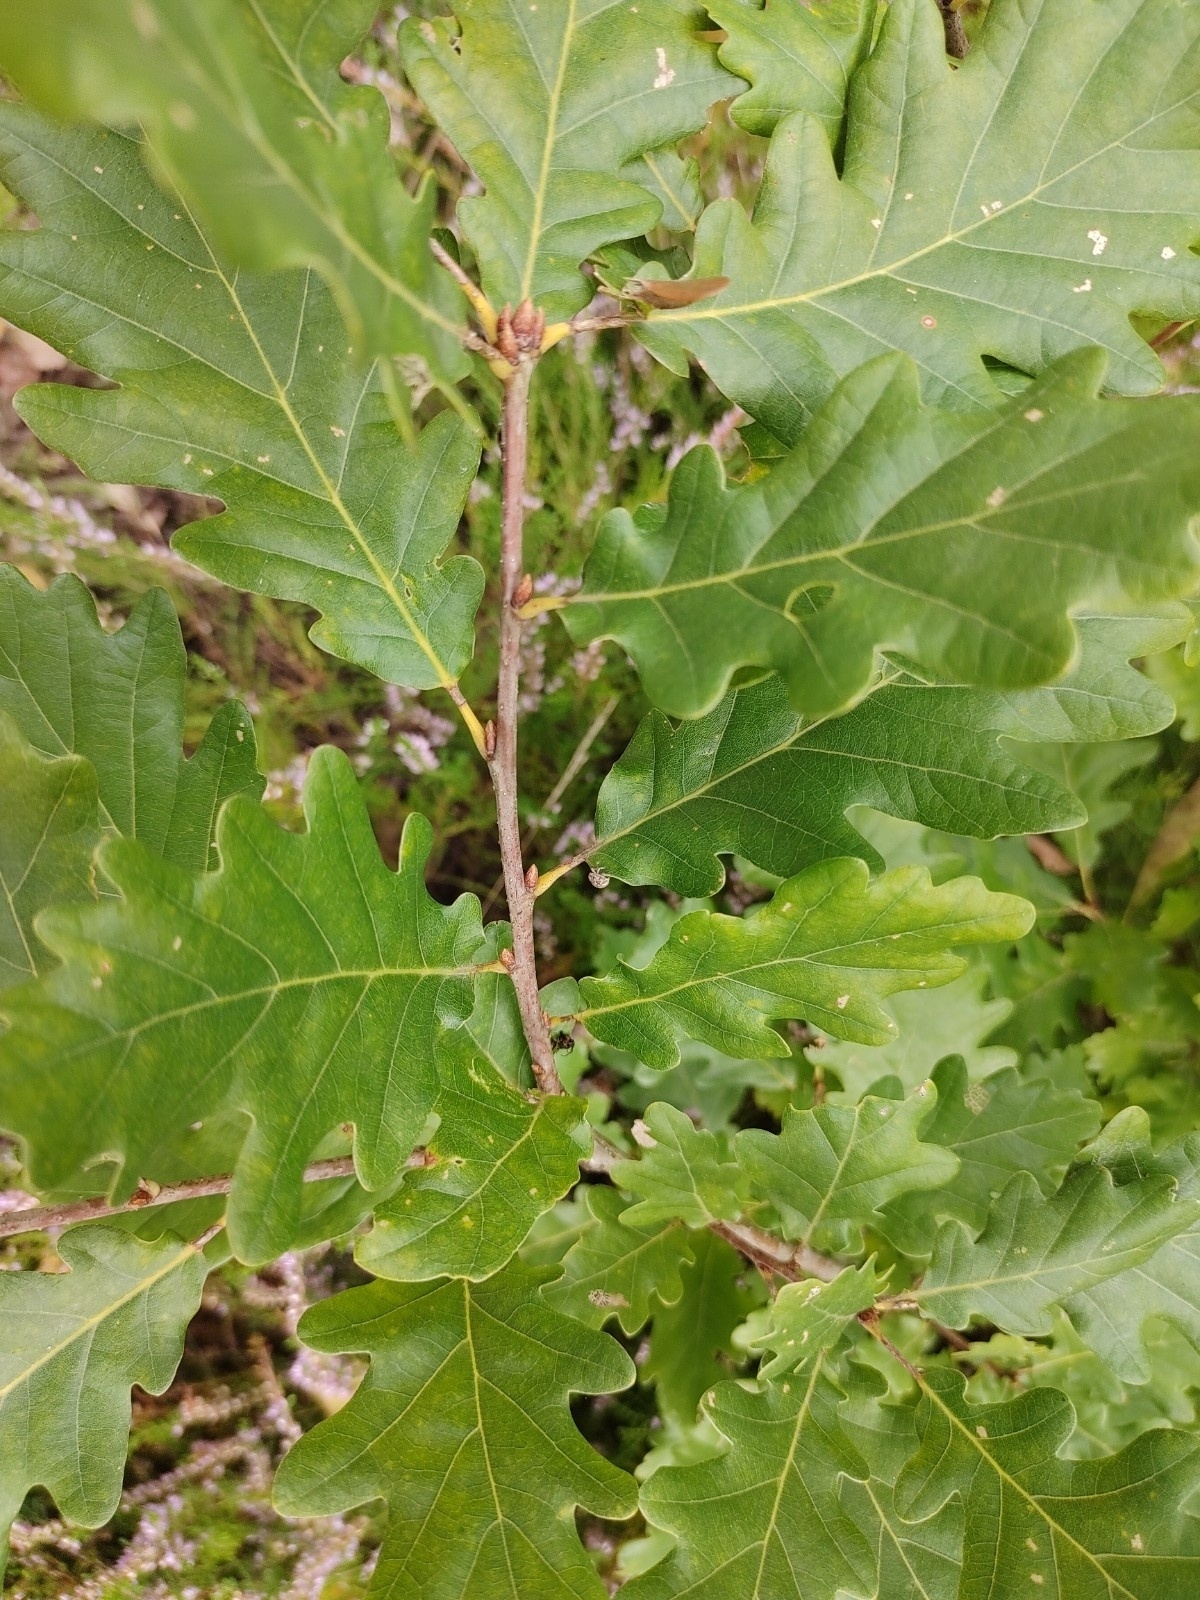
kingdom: Plantae
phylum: Tracheophyta
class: Magnoliopsida
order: Fagales
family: Fagaceae
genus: Quercus
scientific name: Quercus robur
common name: Pedunculate oak
